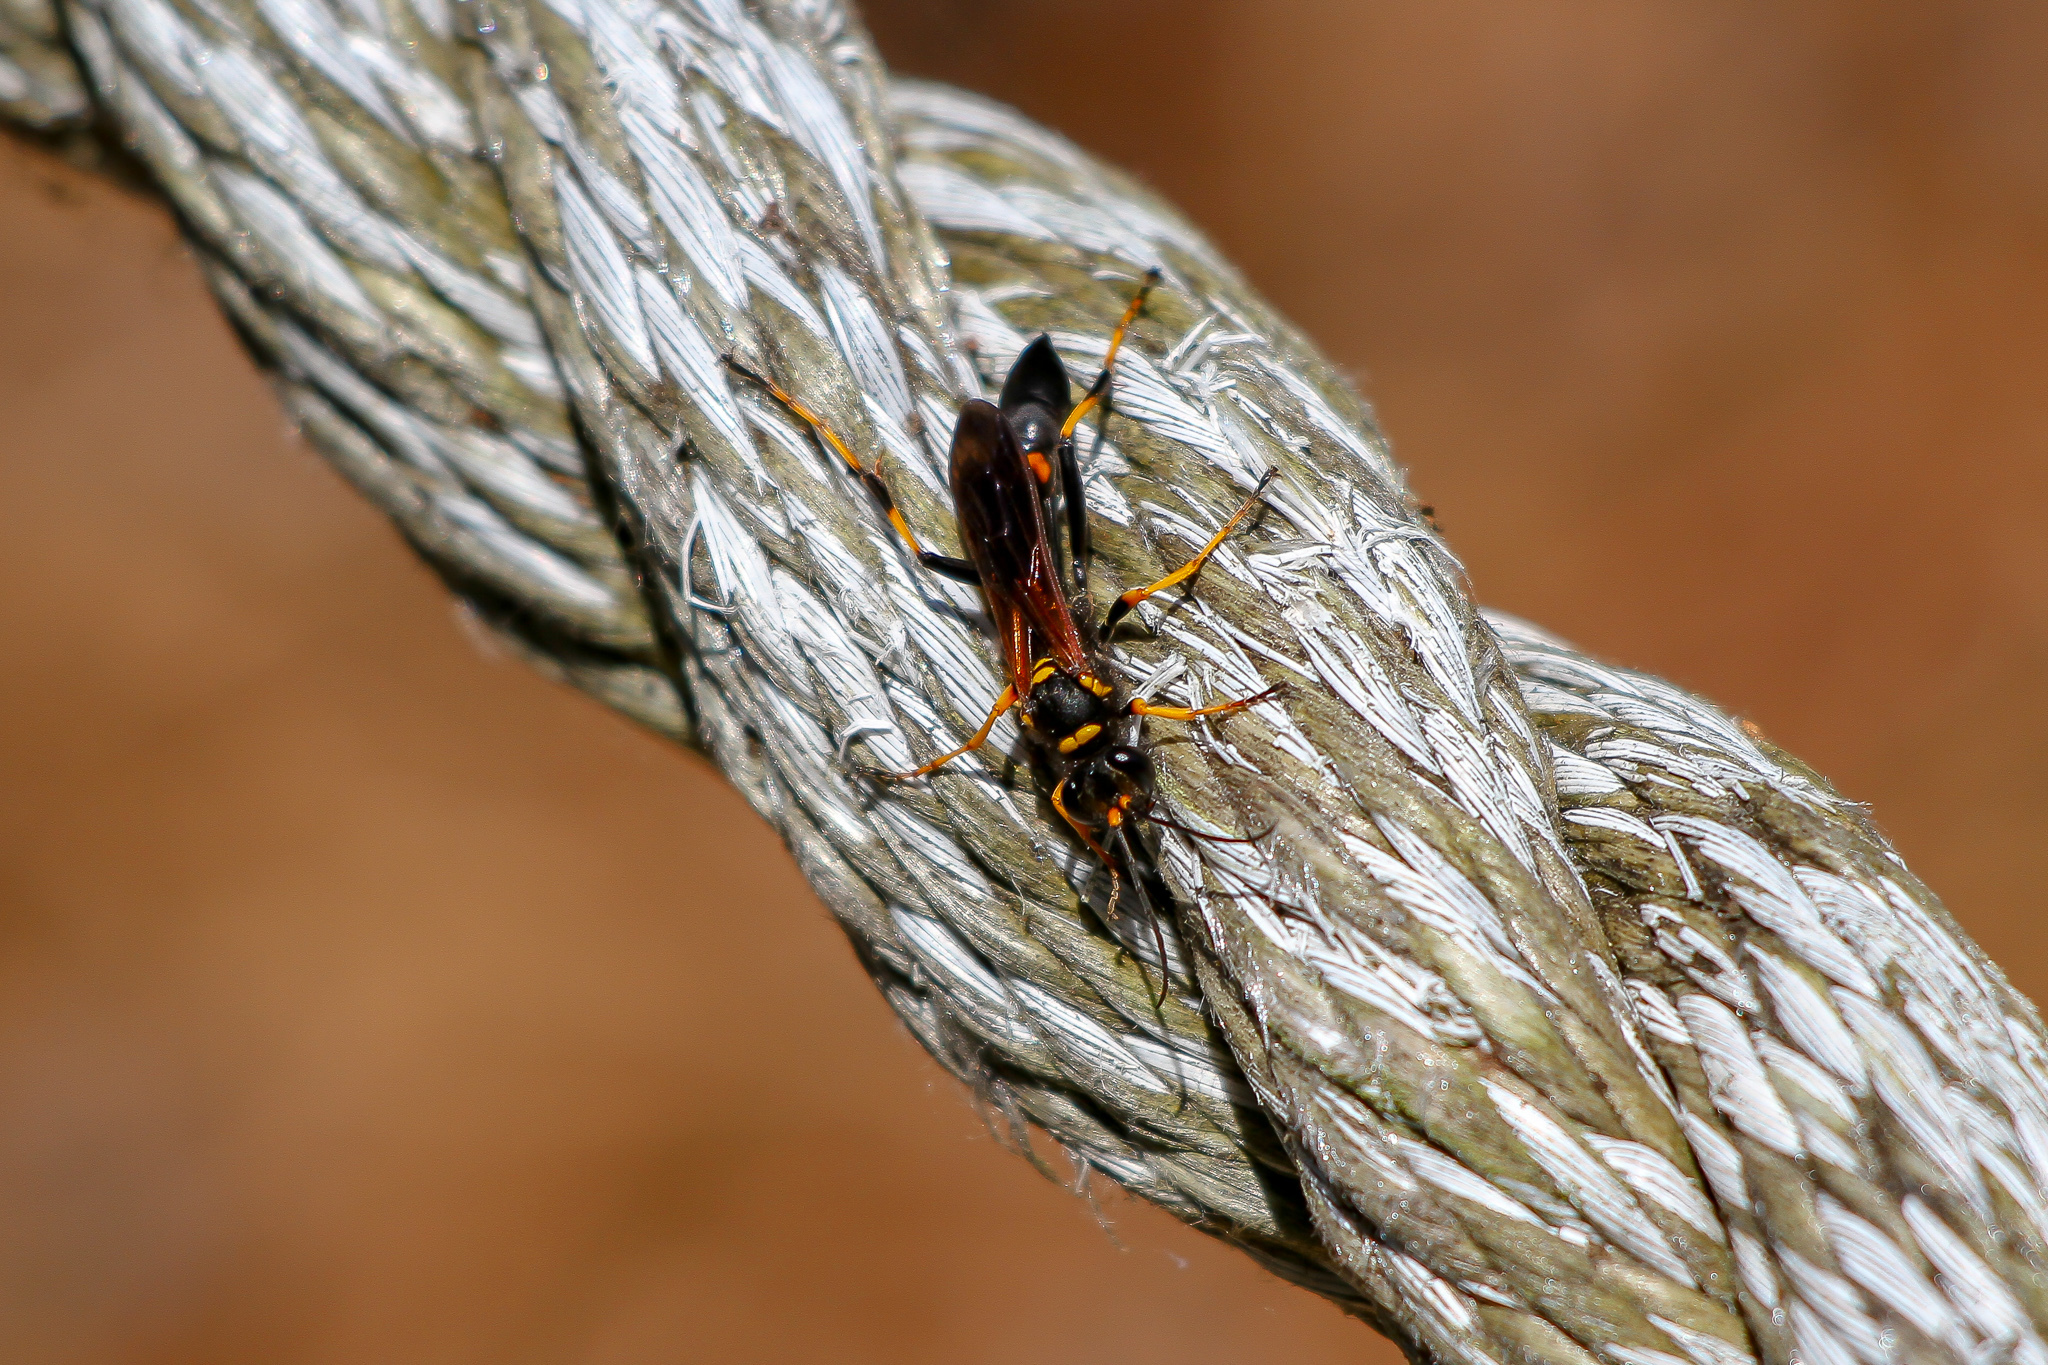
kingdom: Animalia
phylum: Arthropoda
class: Insecta
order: Hymenoptera
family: Sphecidae
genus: Sceliphron
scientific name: Sceliphron caementarium
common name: Mud dauber
